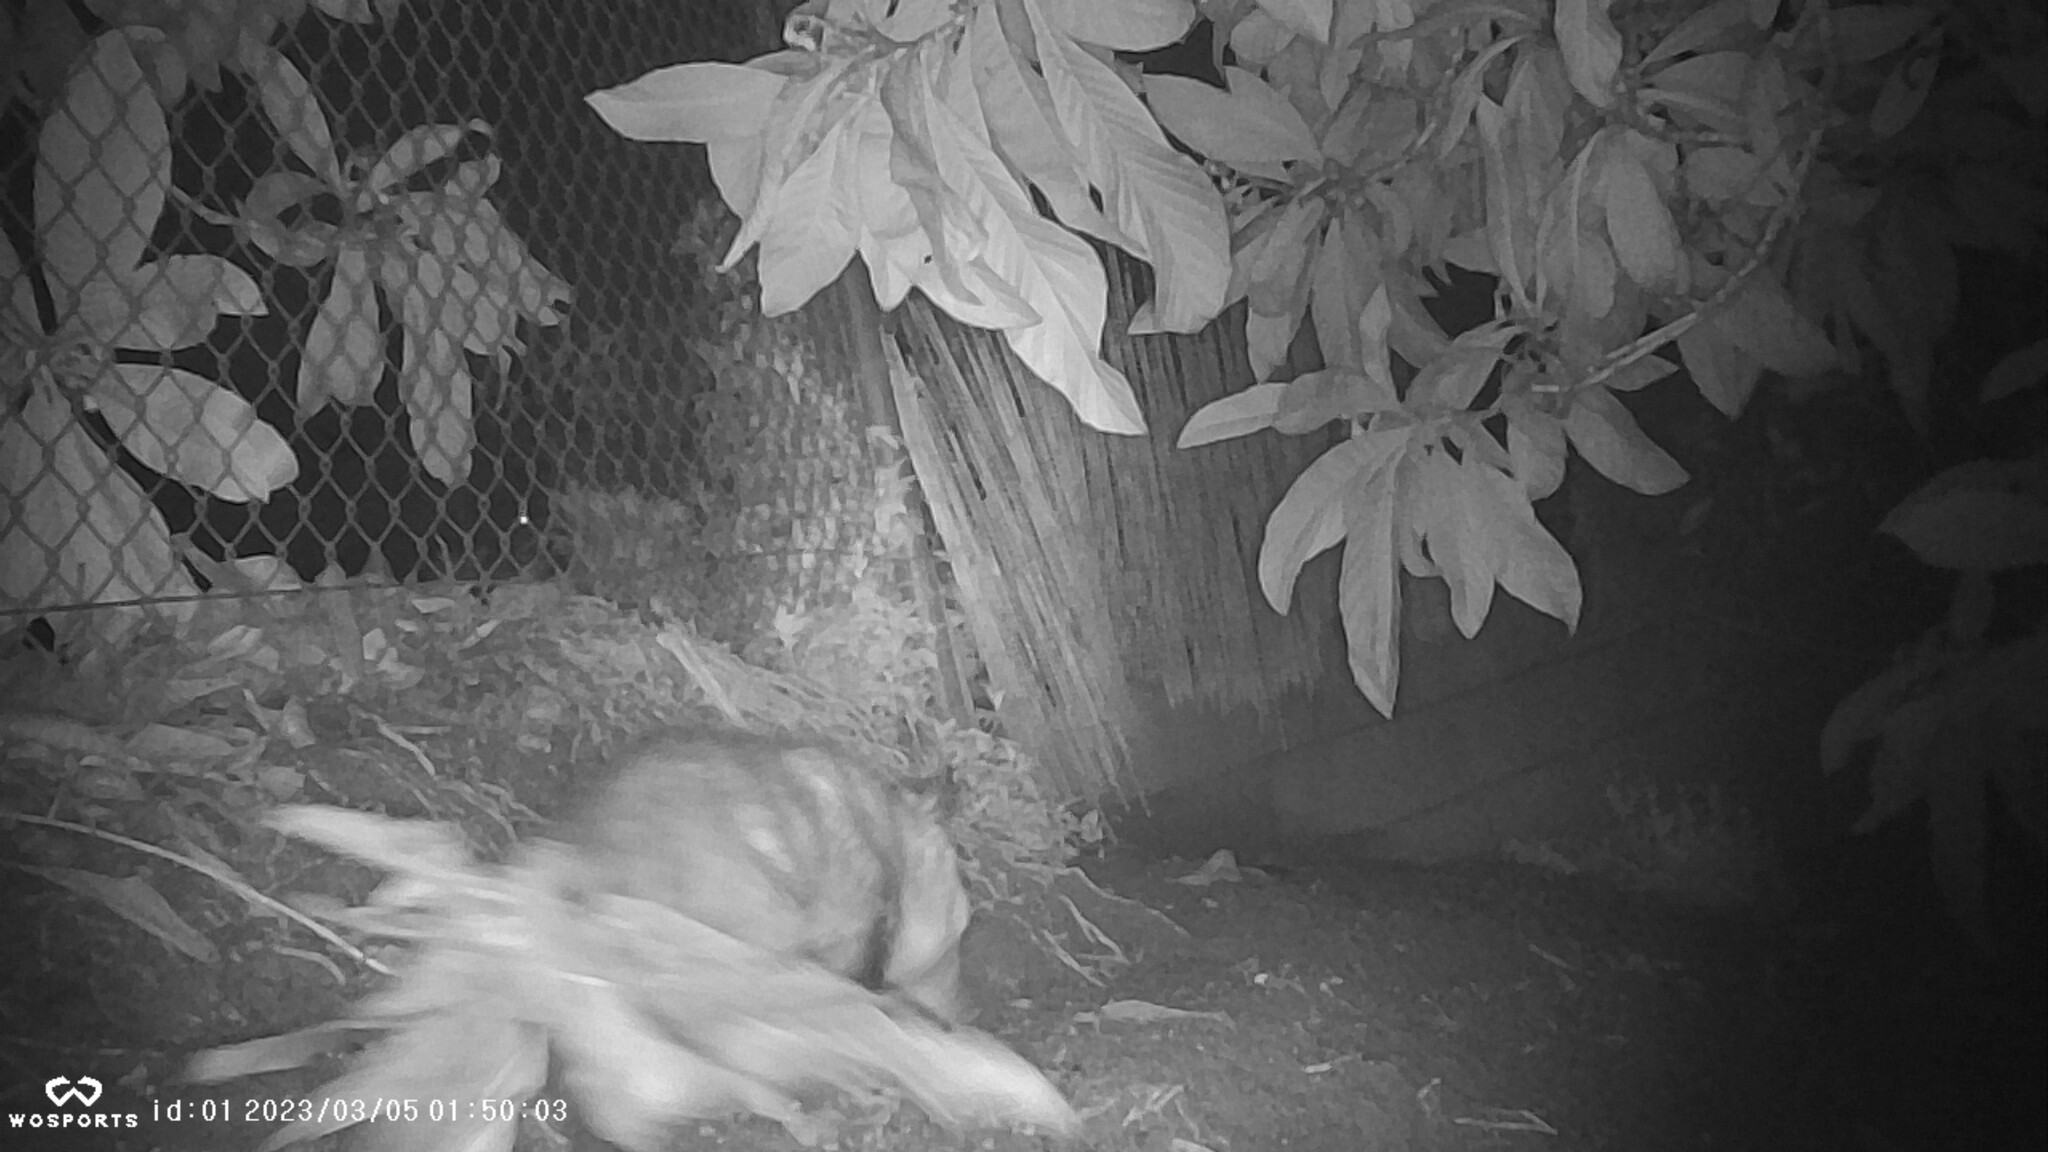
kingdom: Animalia
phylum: Chordata
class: Mammalia
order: Didelphimorphia
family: Didelphidae
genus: Didelphis
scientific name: Didelphis virginiana
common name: Virginia opossum
